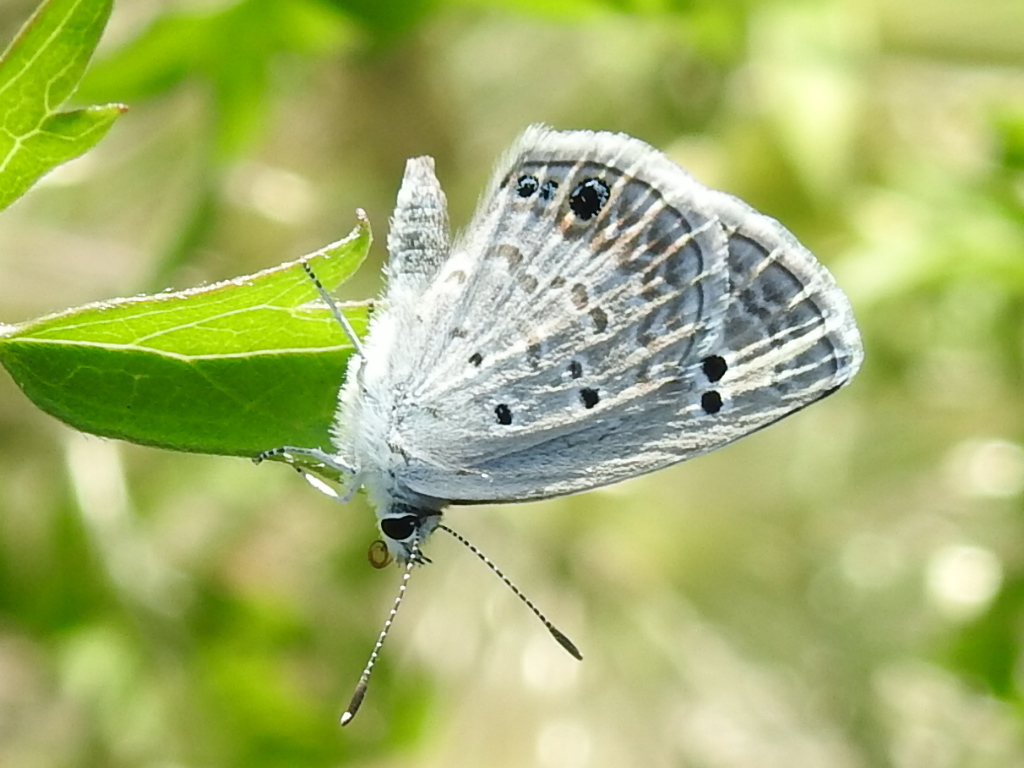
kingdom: Animalia
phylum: Arthropoda
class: Insecta
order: Lepidoptera
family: Lycaenidae
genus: Echinargus
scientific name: Echinargus isola
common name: Reakirt's blue
